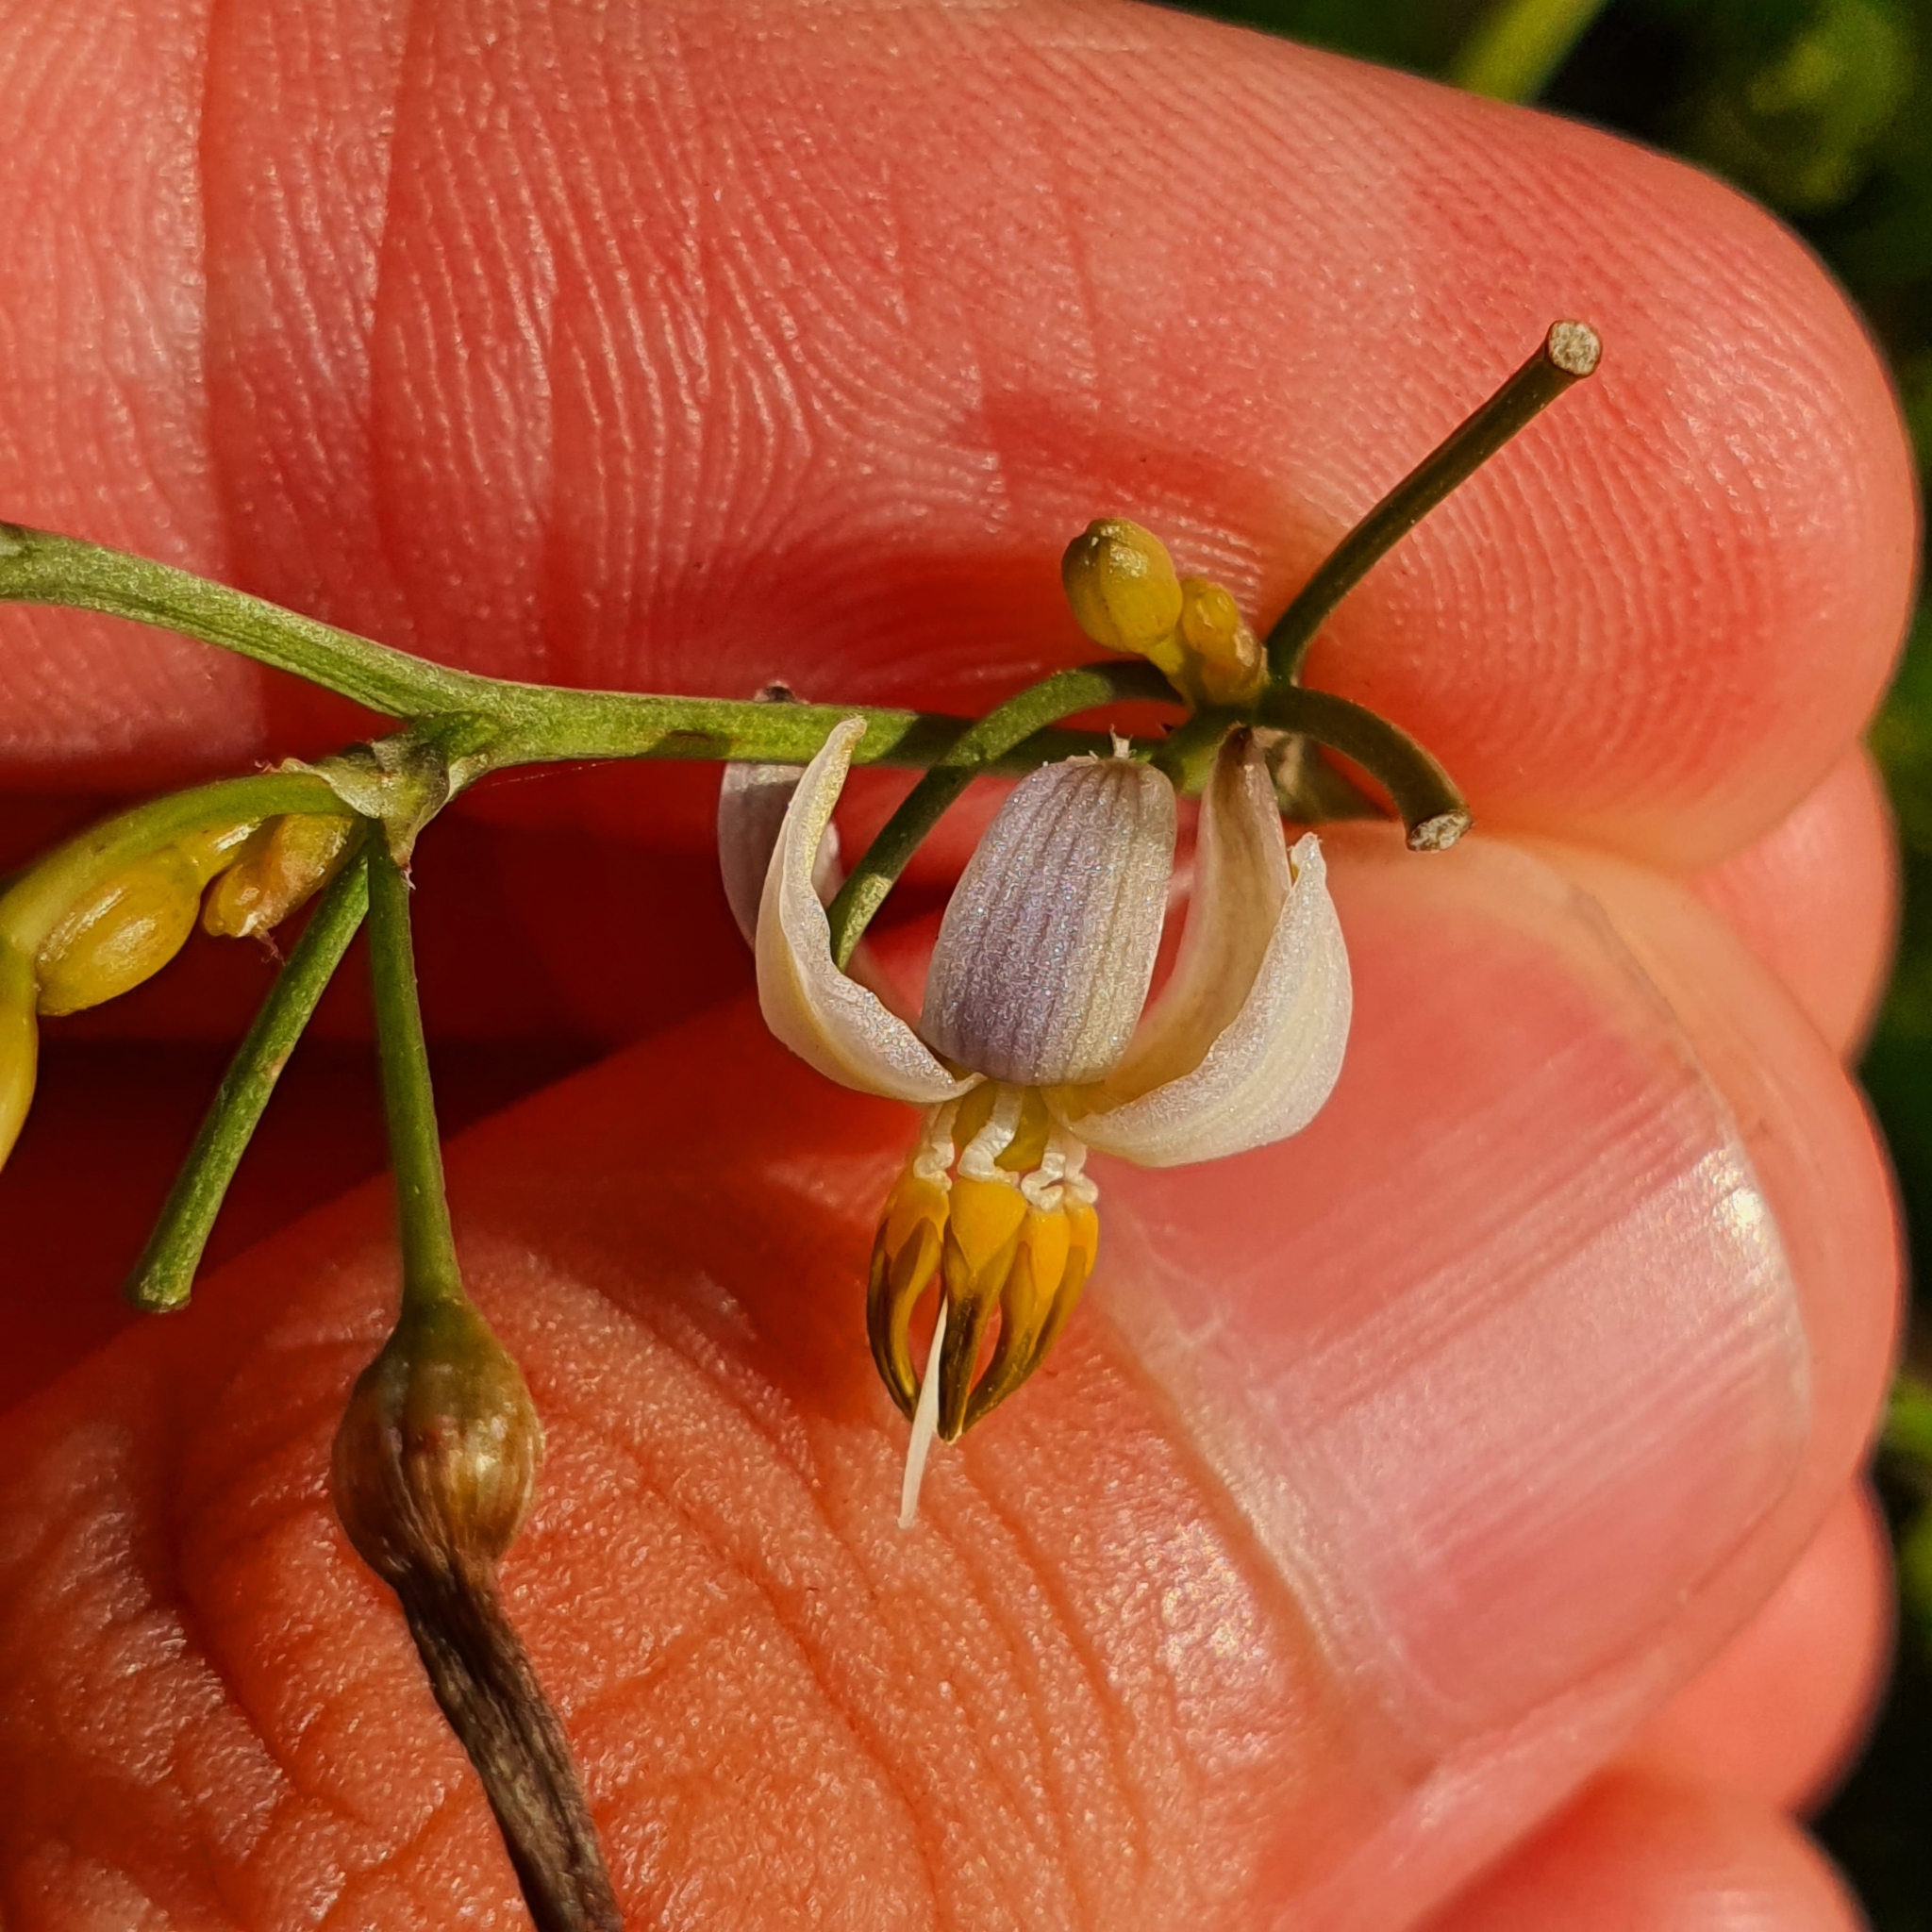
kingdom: Plantae
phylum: Tracheophyta
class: Liliopsida
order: Asparagales
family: Asphodelaceae
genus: Dianella
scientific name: Dianella ensifolia
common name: New zealand lilyplant
